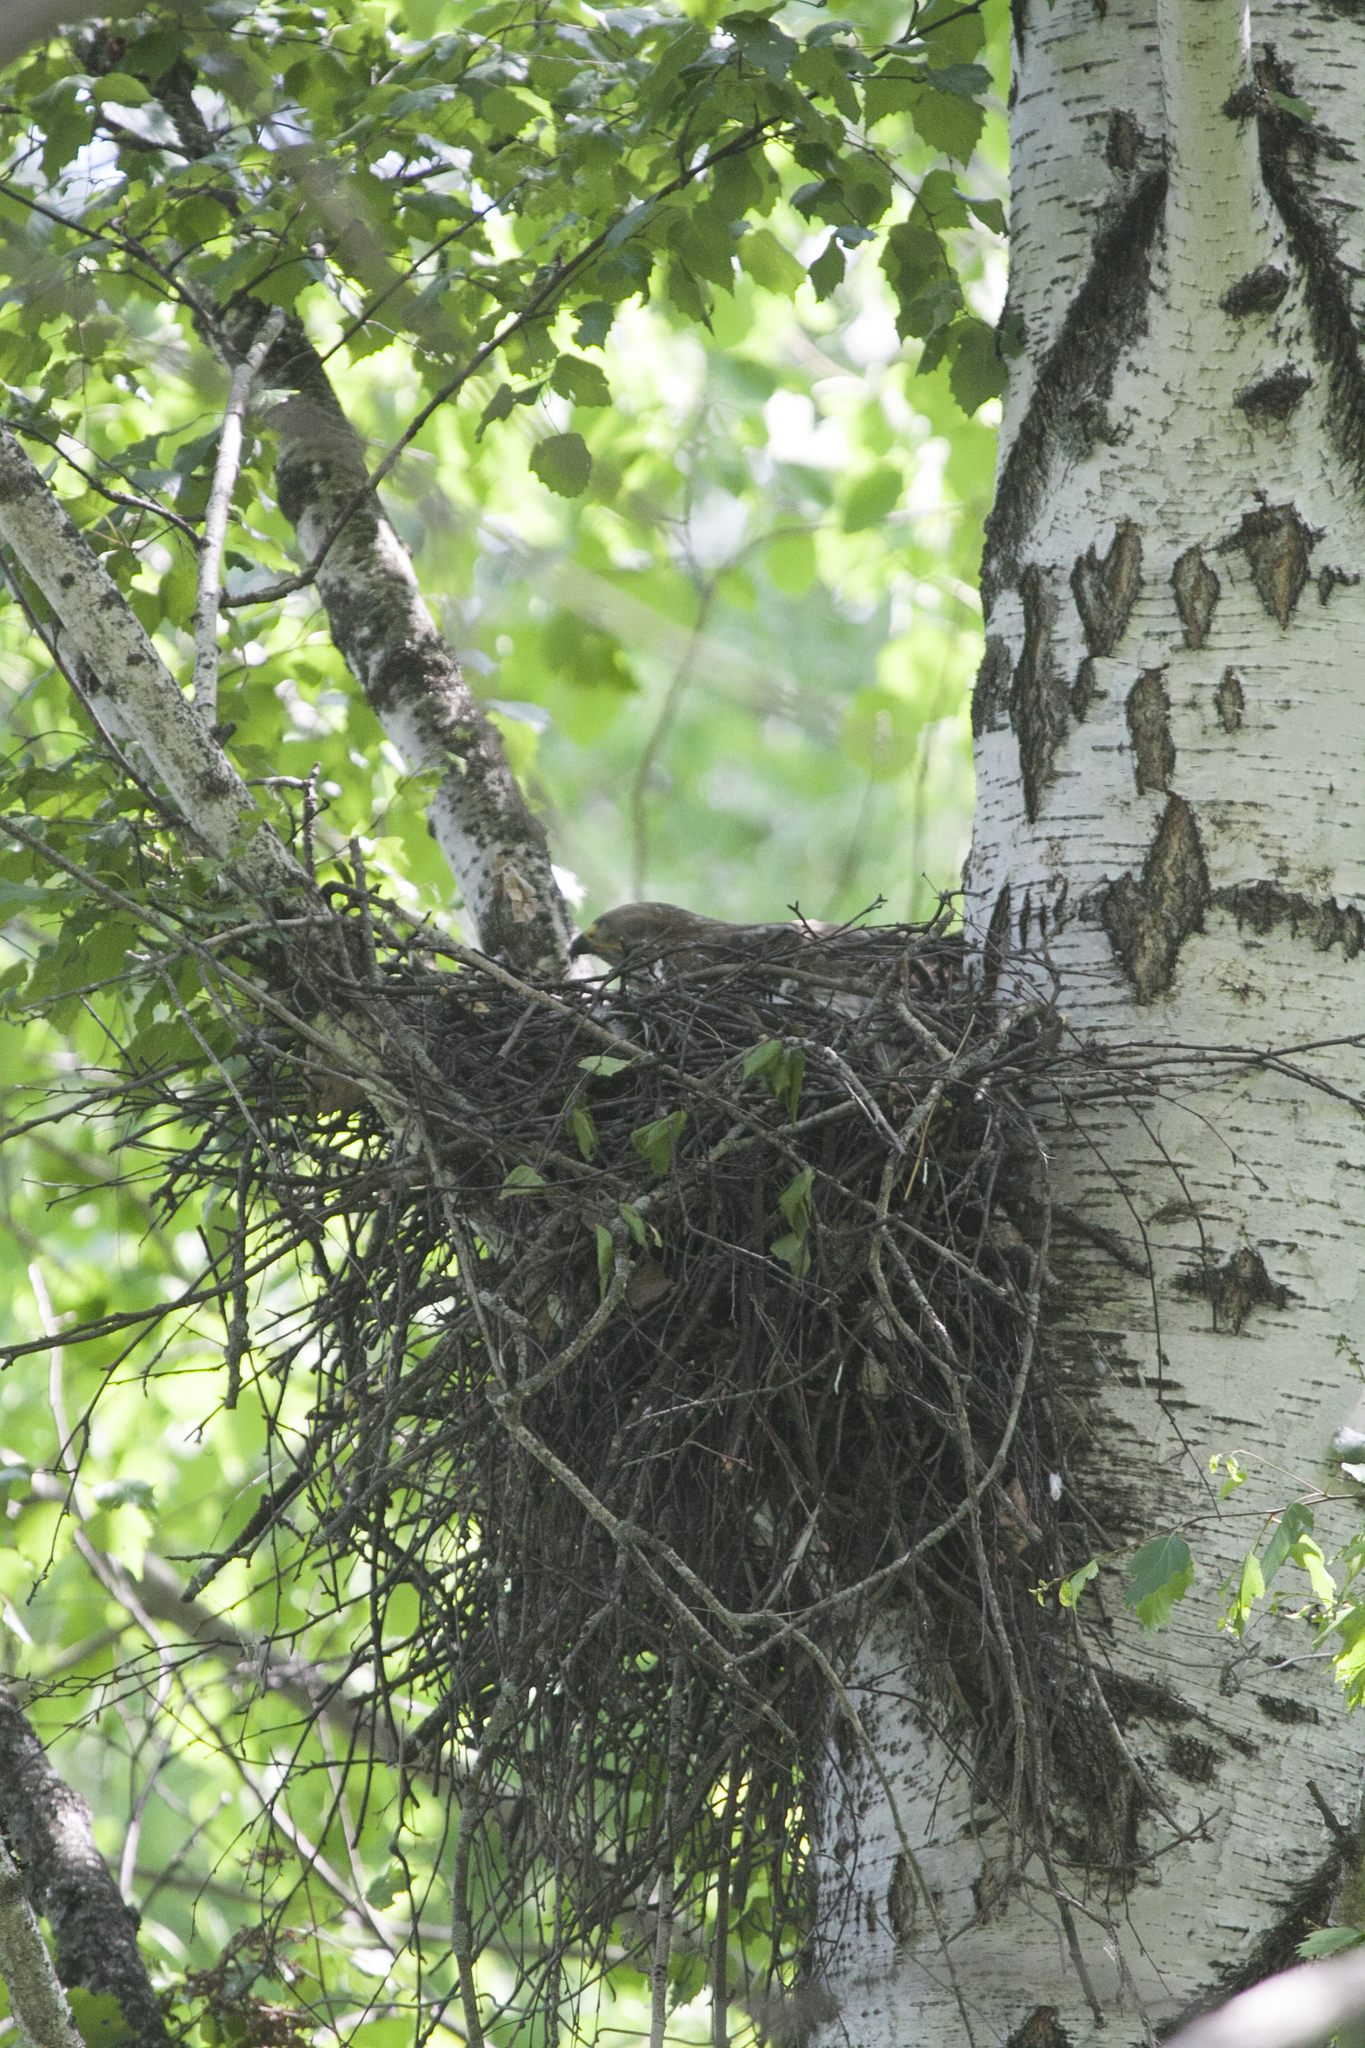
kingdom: Animalia
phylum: Chordata
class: Aves
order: Accipitriformes
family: Accipitridae
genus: Buteo
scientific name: Buteo buteo
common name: Common buzzard
